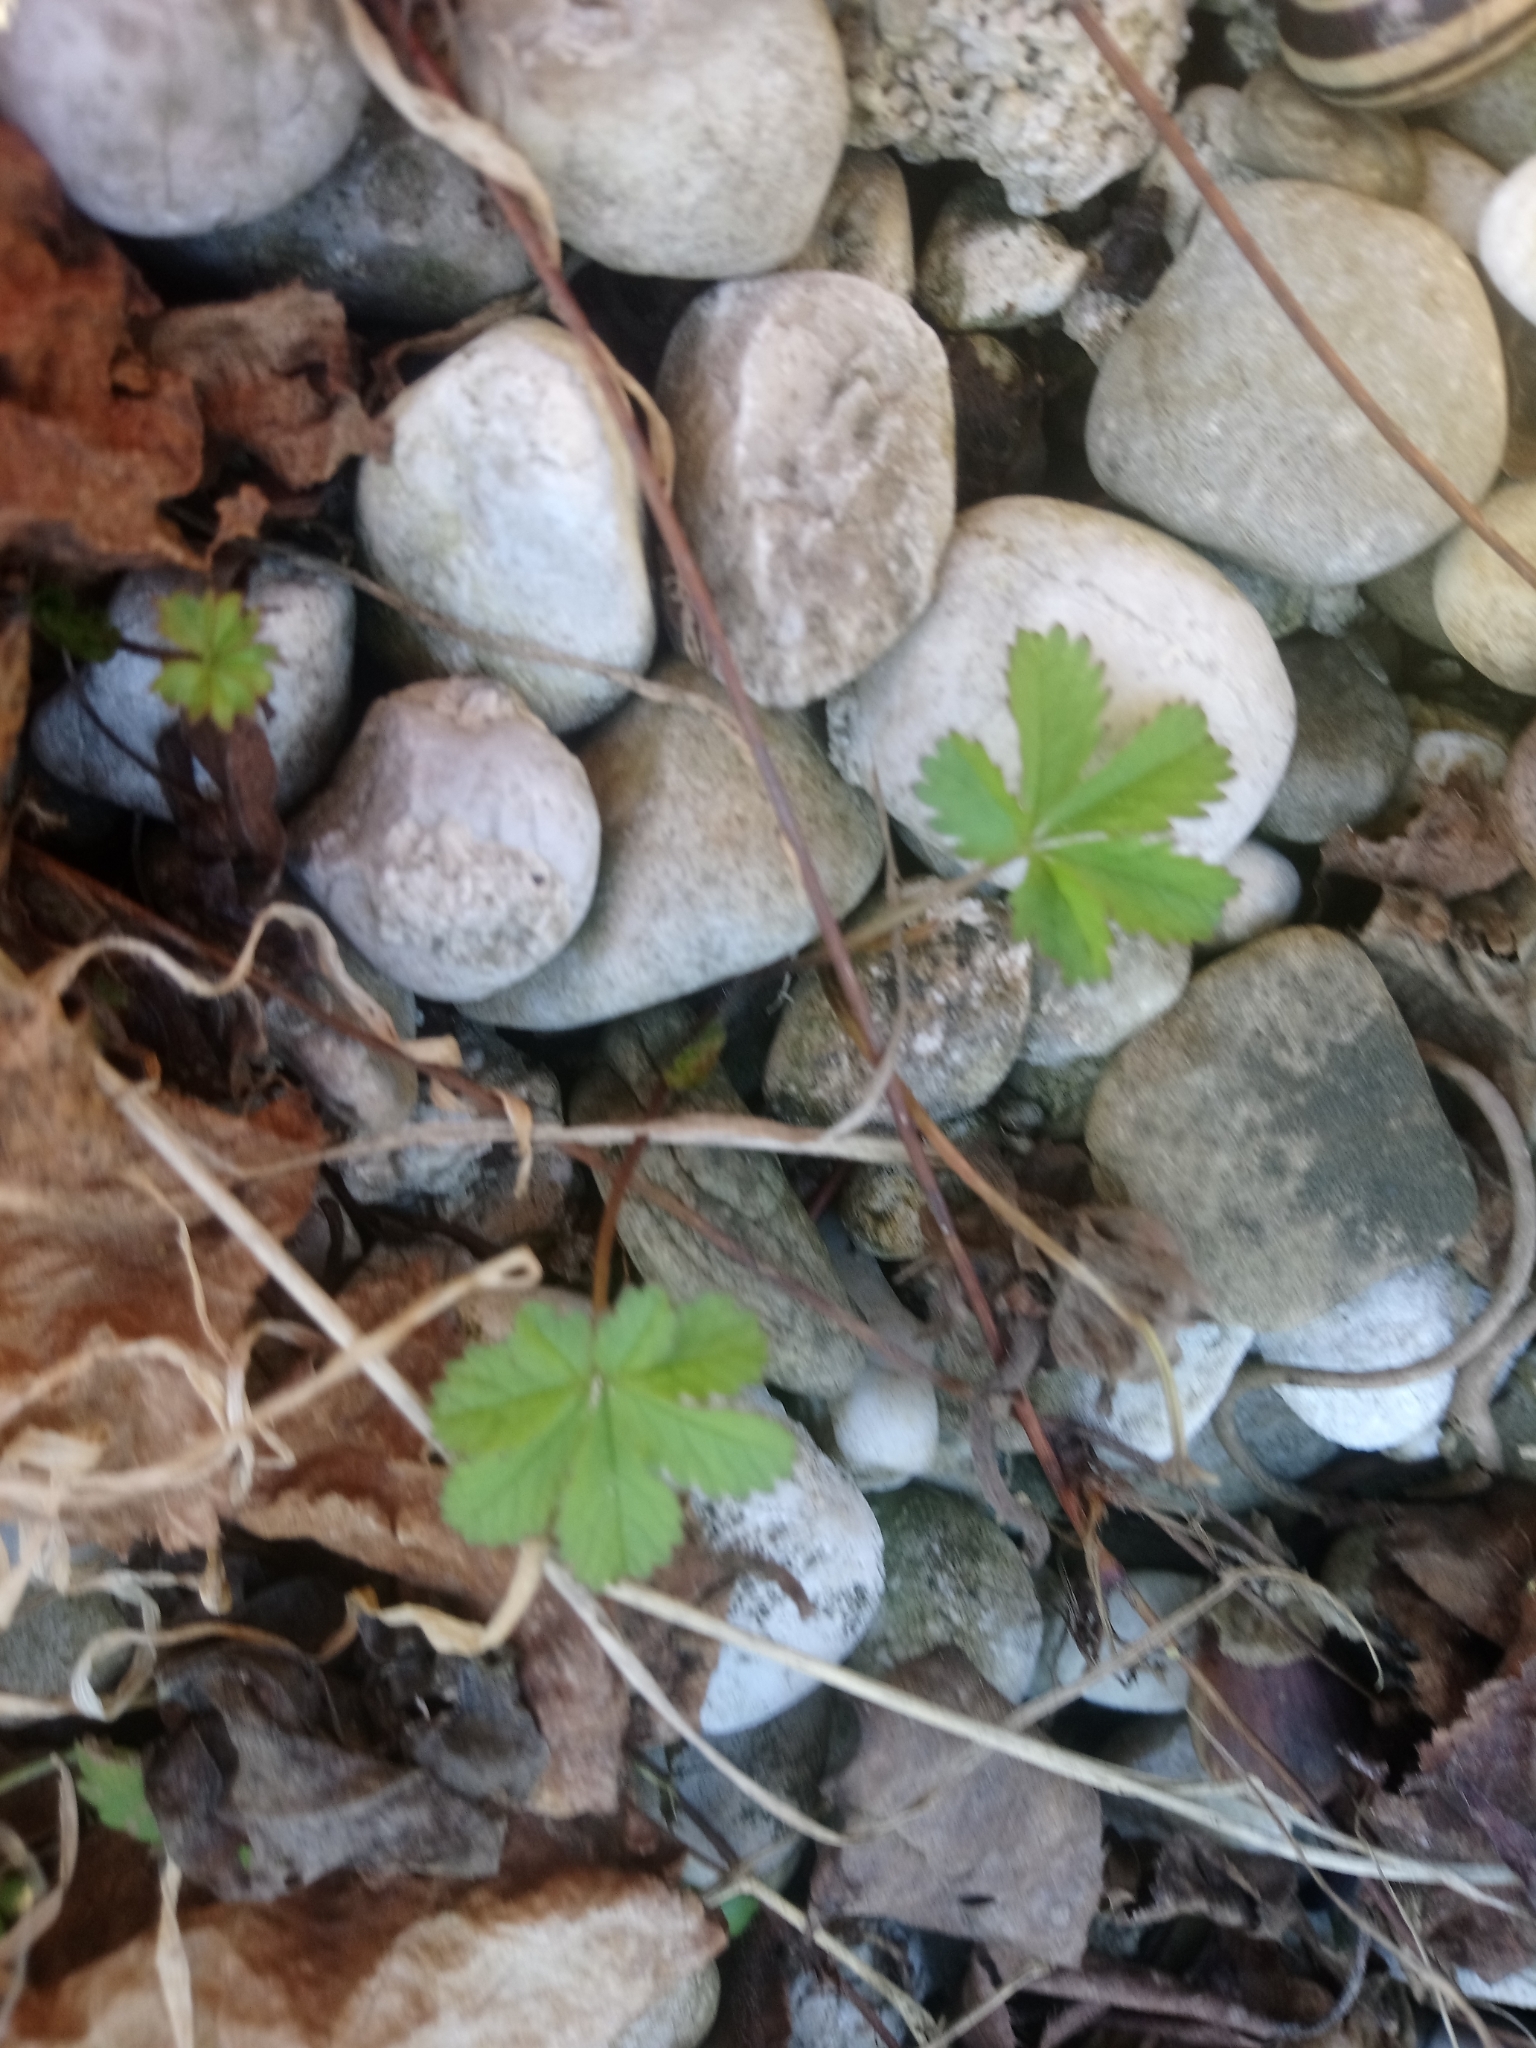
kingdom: Plantae
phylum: Tracheophyta
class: Magnoliopsida
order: Rosales
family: Rosaceae
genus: Potentilla
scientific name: Potentilla reptans
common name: Creeping cinquefoil
